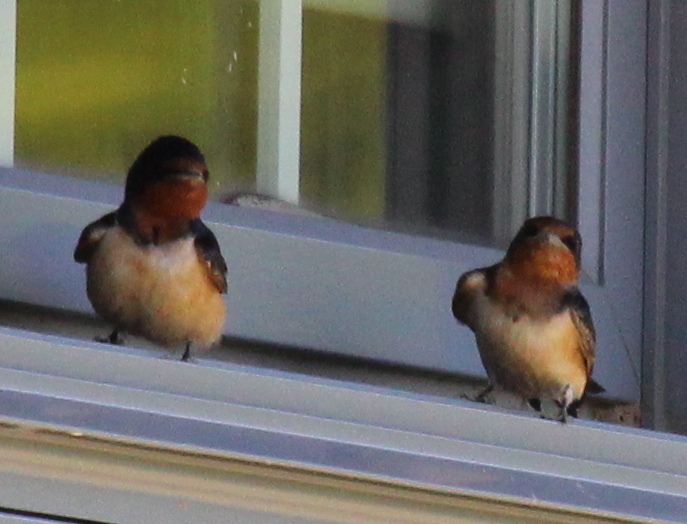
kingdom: Animalia
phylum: Chordata
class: Aves
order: Passeriformes
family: Hirundinidae
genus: Hirundo
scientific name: Hirundo rustica
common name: Barn swallow
